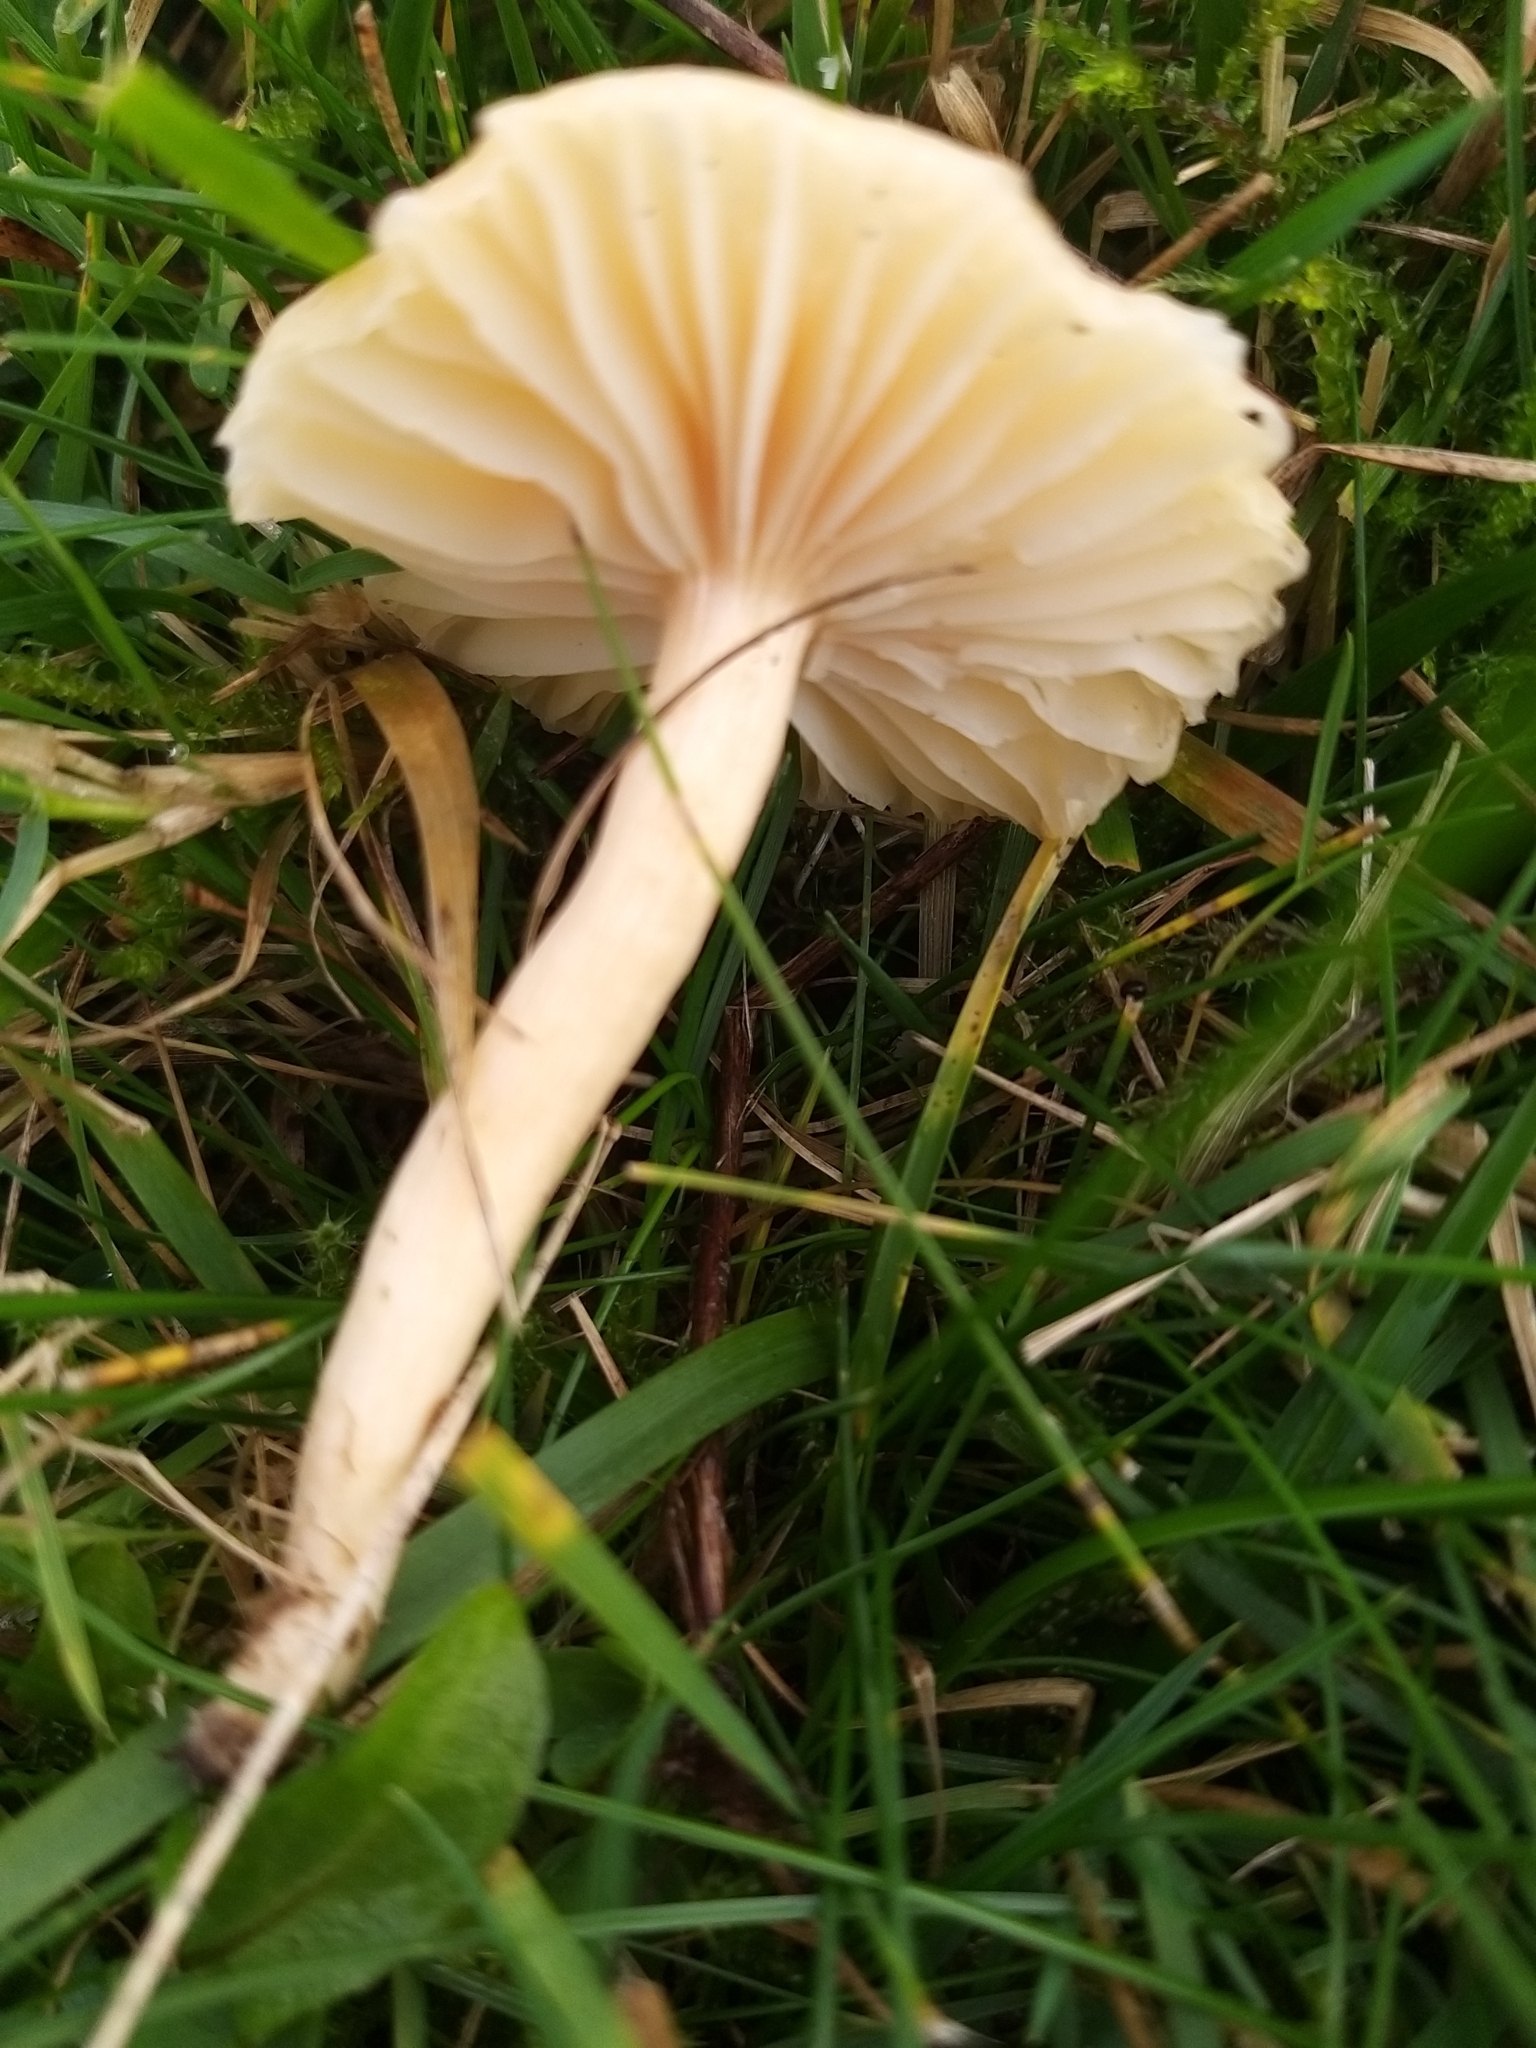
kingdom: Fungi
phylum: Basidiomycota
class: Agaricomycetes
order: Agaricales
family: Hygrophoraceae
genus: Cuphophyllus
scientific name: Cuphophyllus pratensis
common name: Meadow waxcap
